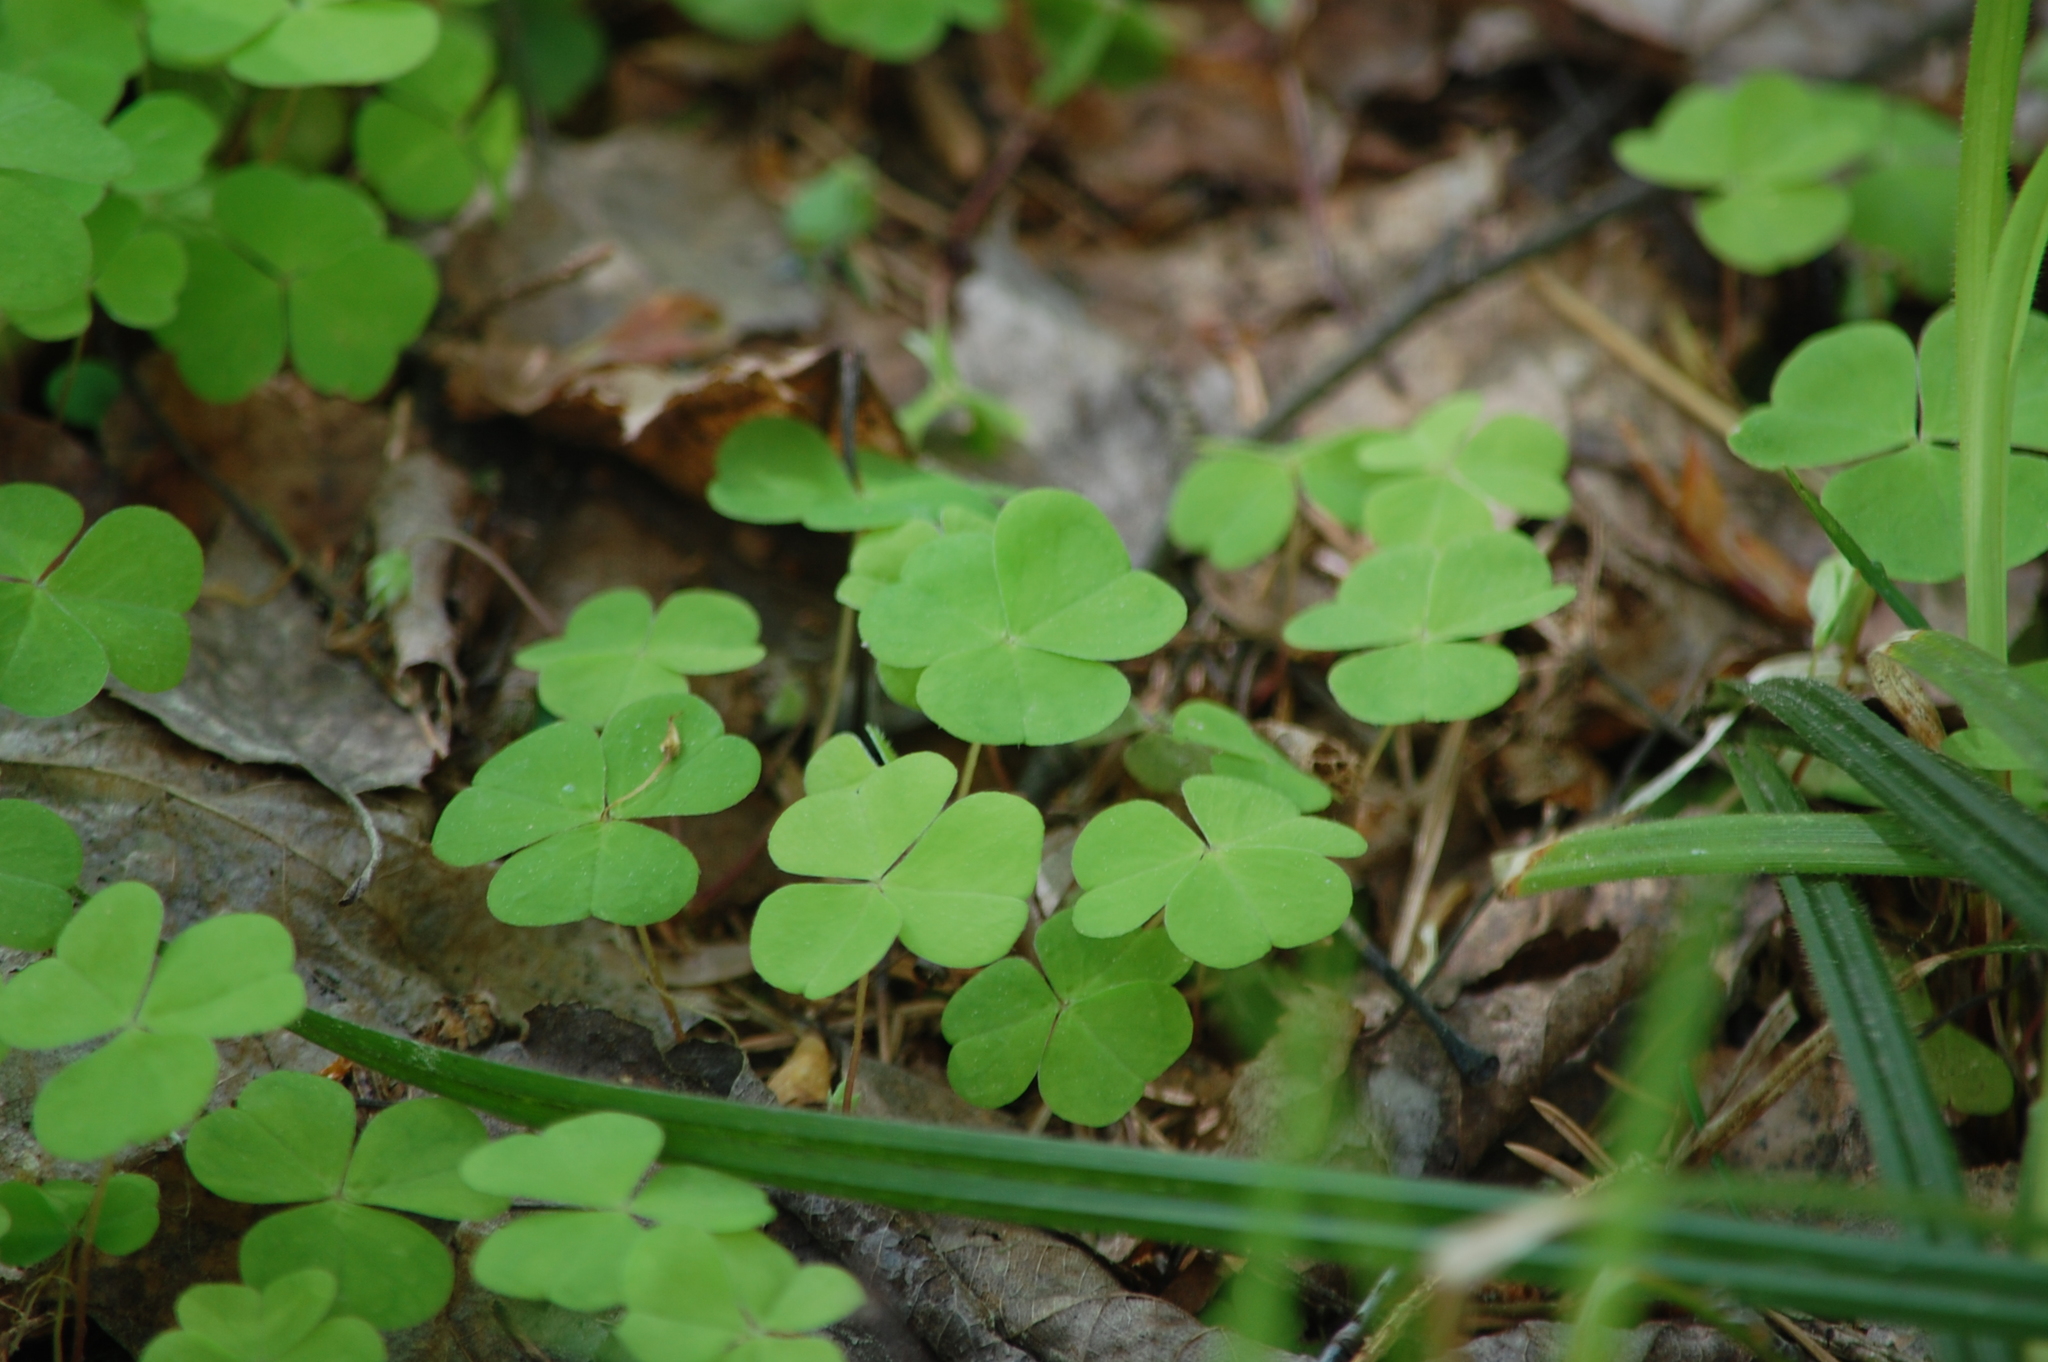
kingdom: Plantae
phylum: Tracheophyta
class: Magnoliopsida
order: Oxalidales
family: Oxalidaceae
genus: Oxalis
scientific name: Oxalis acetosella
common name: Wood-sorrel
